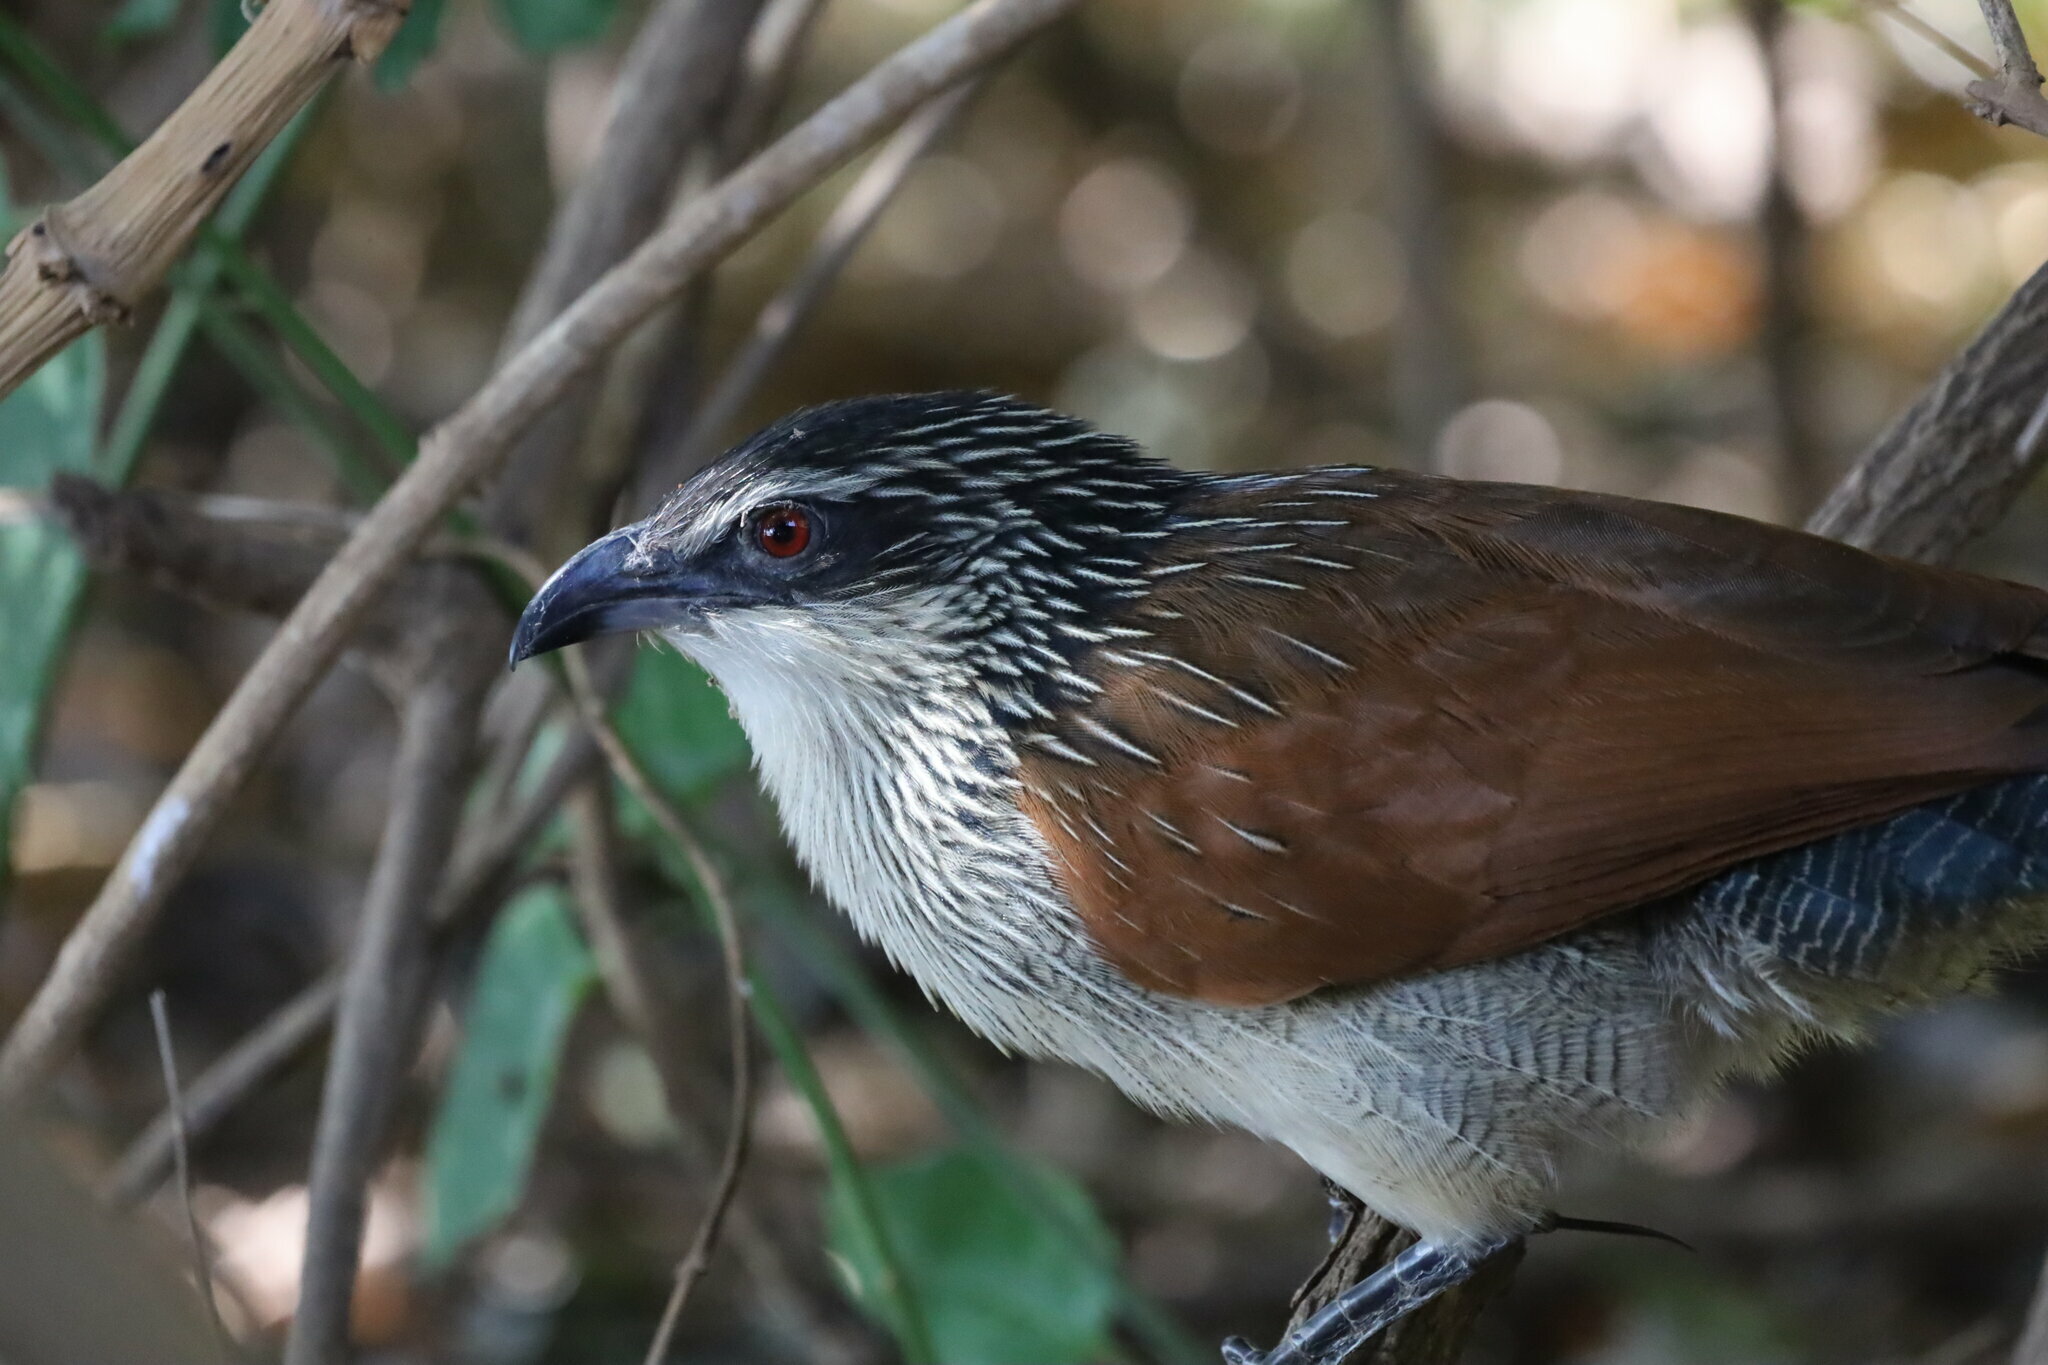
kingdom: Animalia
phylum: Chordata
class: Aves
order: Cuculiformes
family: Cuculidae
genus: Centropus
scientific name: Centropus superciliosus
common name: White-browed coucal
